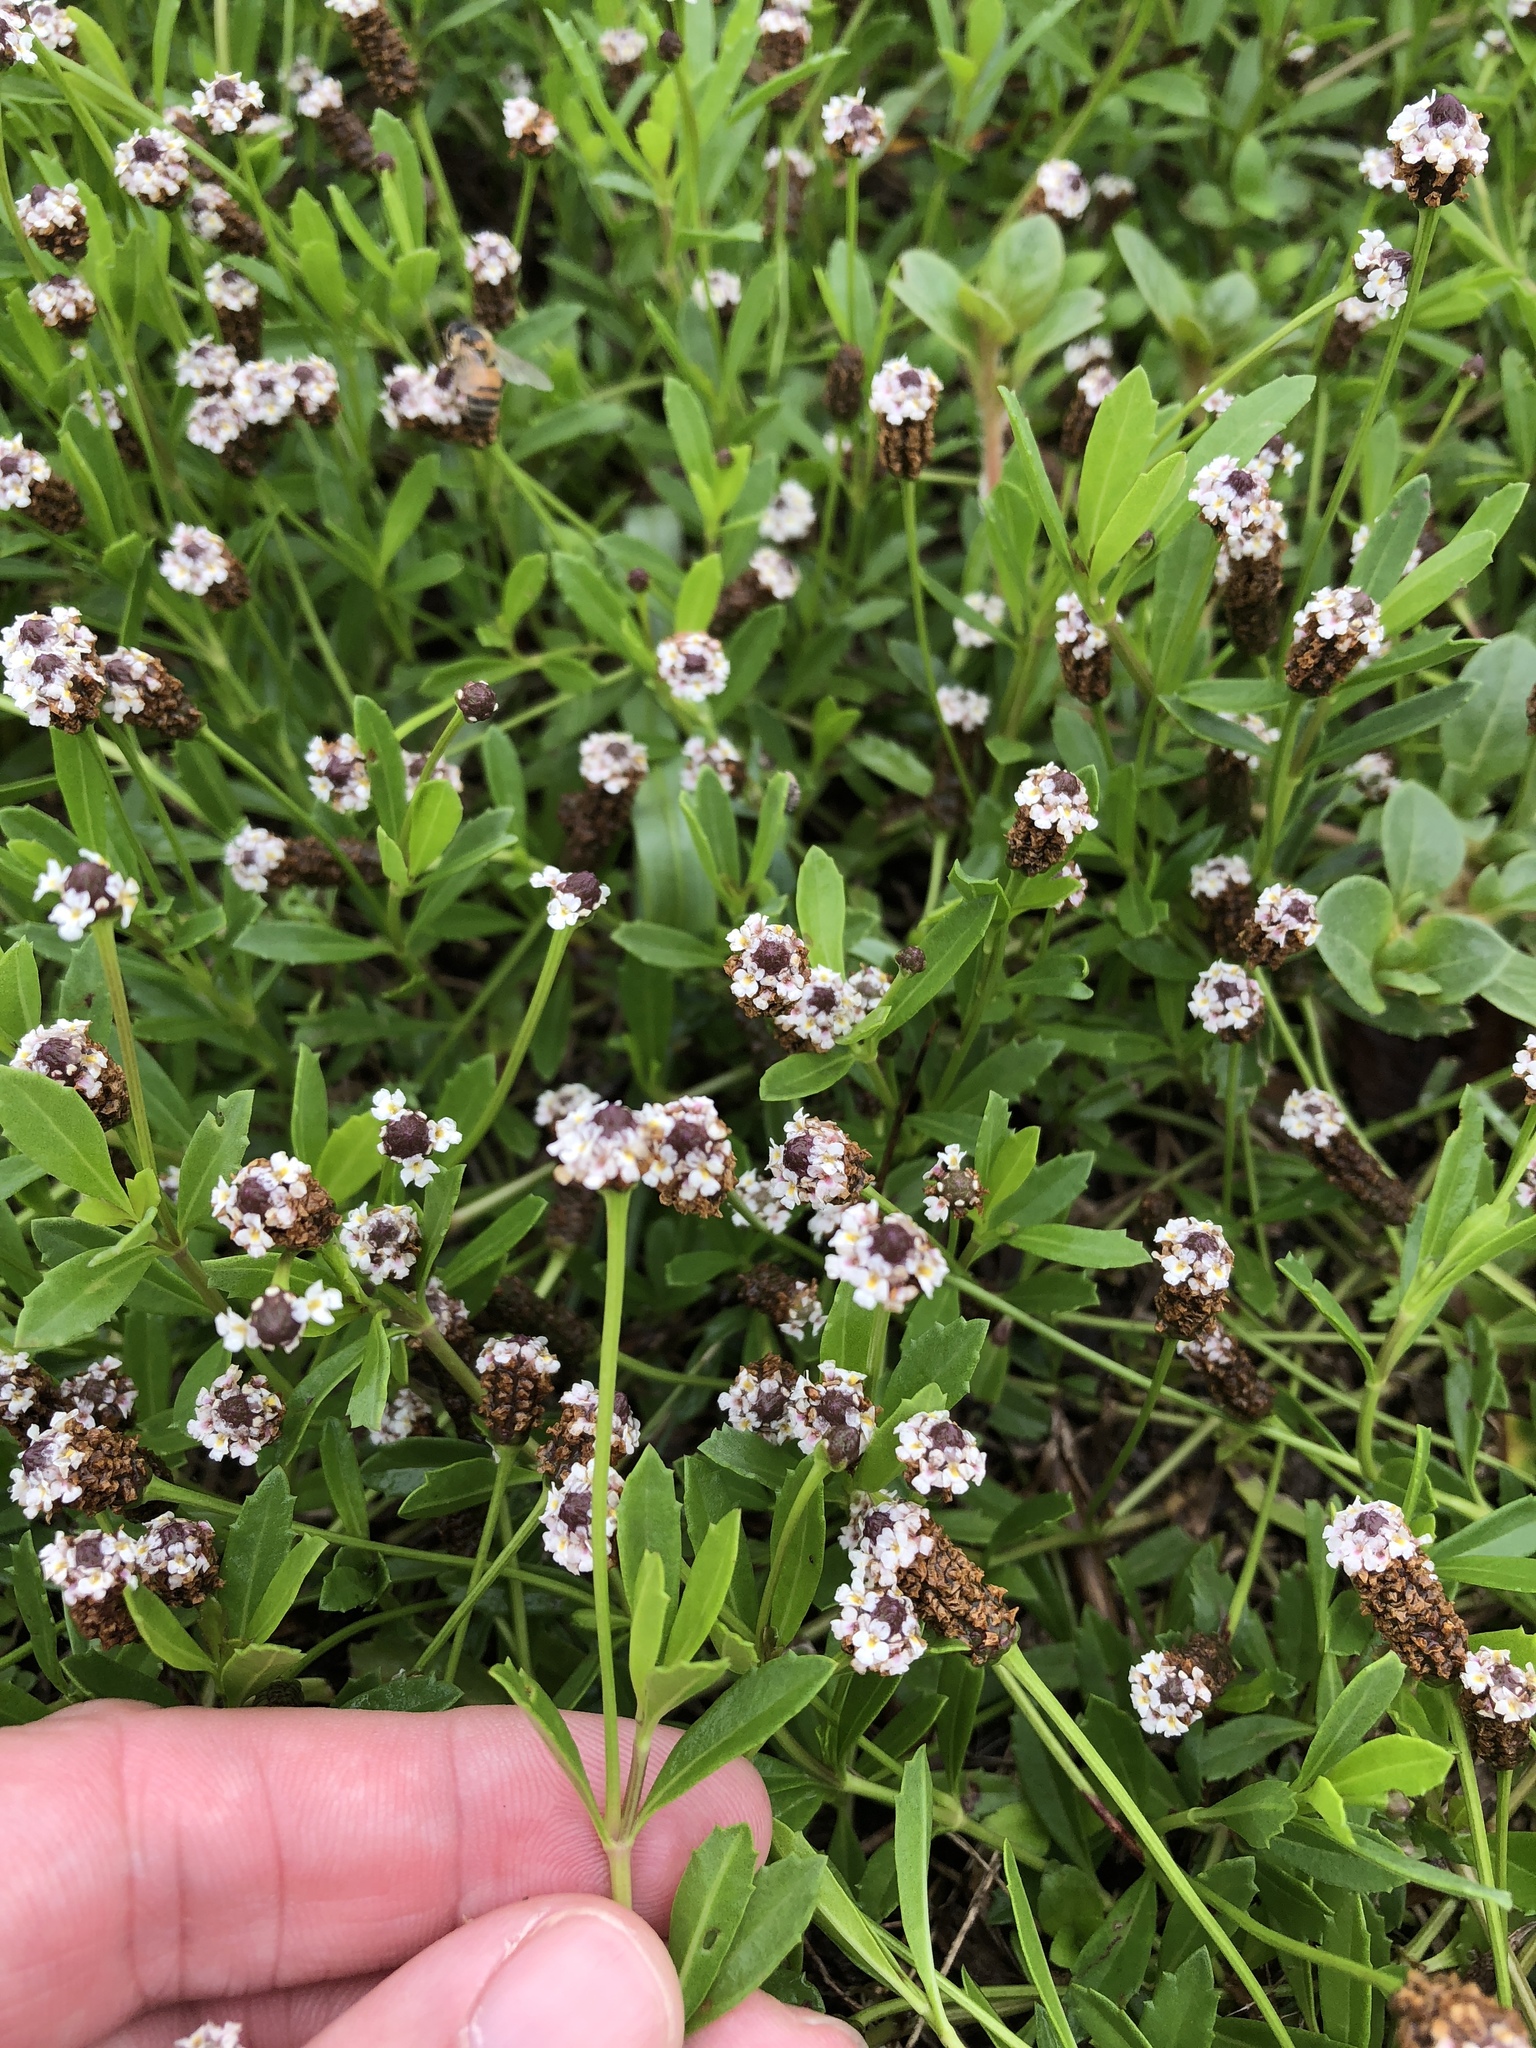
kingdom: Plantae
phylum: Tracheophyta
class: Magnoliopsida
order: Lamiales
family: Verbenaceae
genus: Phyla
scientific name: Phyla nodiflora
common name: Frogfruit
